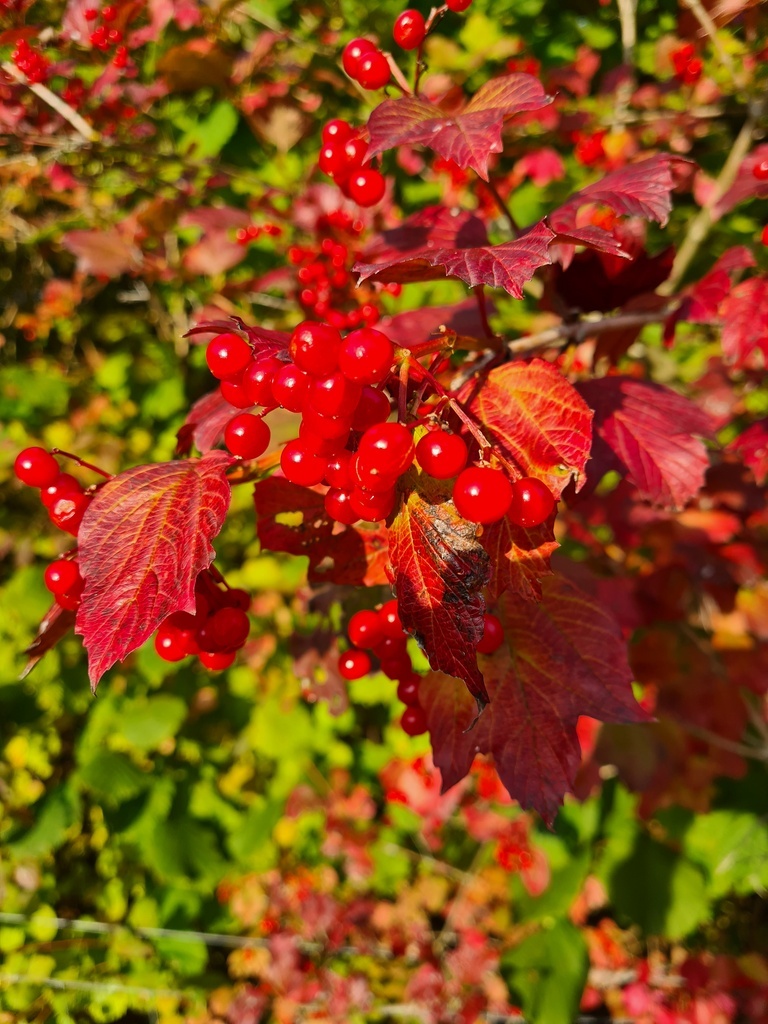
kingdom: Plantae
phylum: Tracheophyta
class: Magnoliopsida
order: Dipsacales
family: Viburnaceae
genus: Viburnum
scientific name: Viburnum opulus
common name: Guelder-rose
